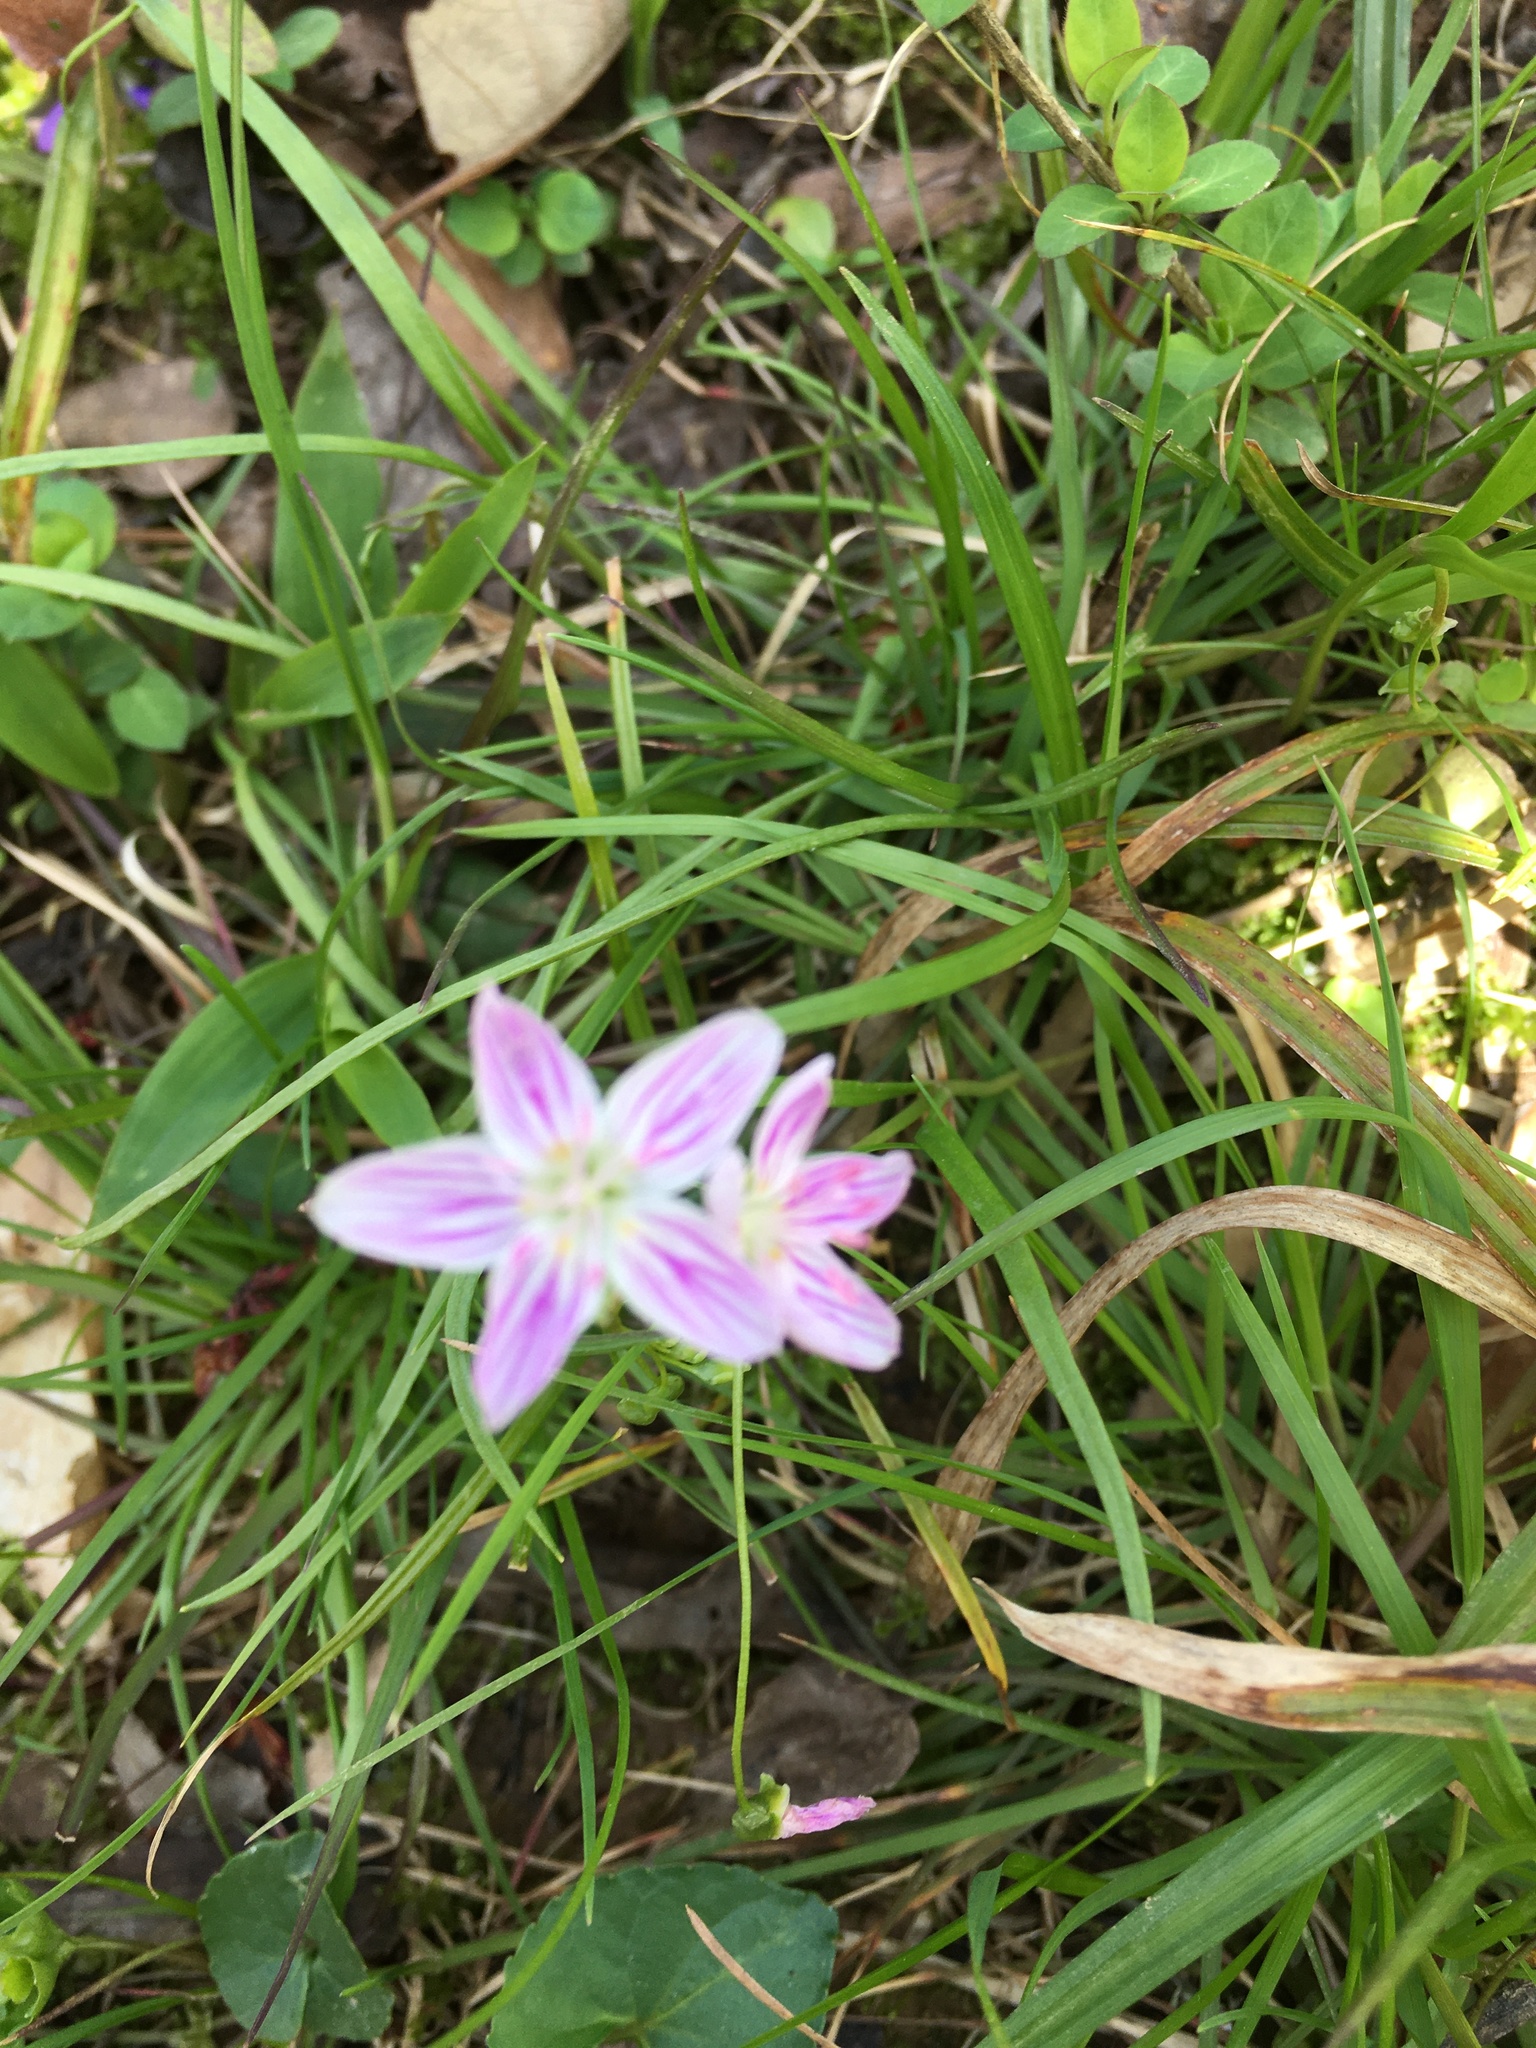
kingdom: Plantae
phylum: Tracheophyta
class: Magnoliopsida
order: Caryophyllales
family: Montiaceae
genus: Claytonia
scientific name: Claytonia virginica
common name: Virginia springbeauty
